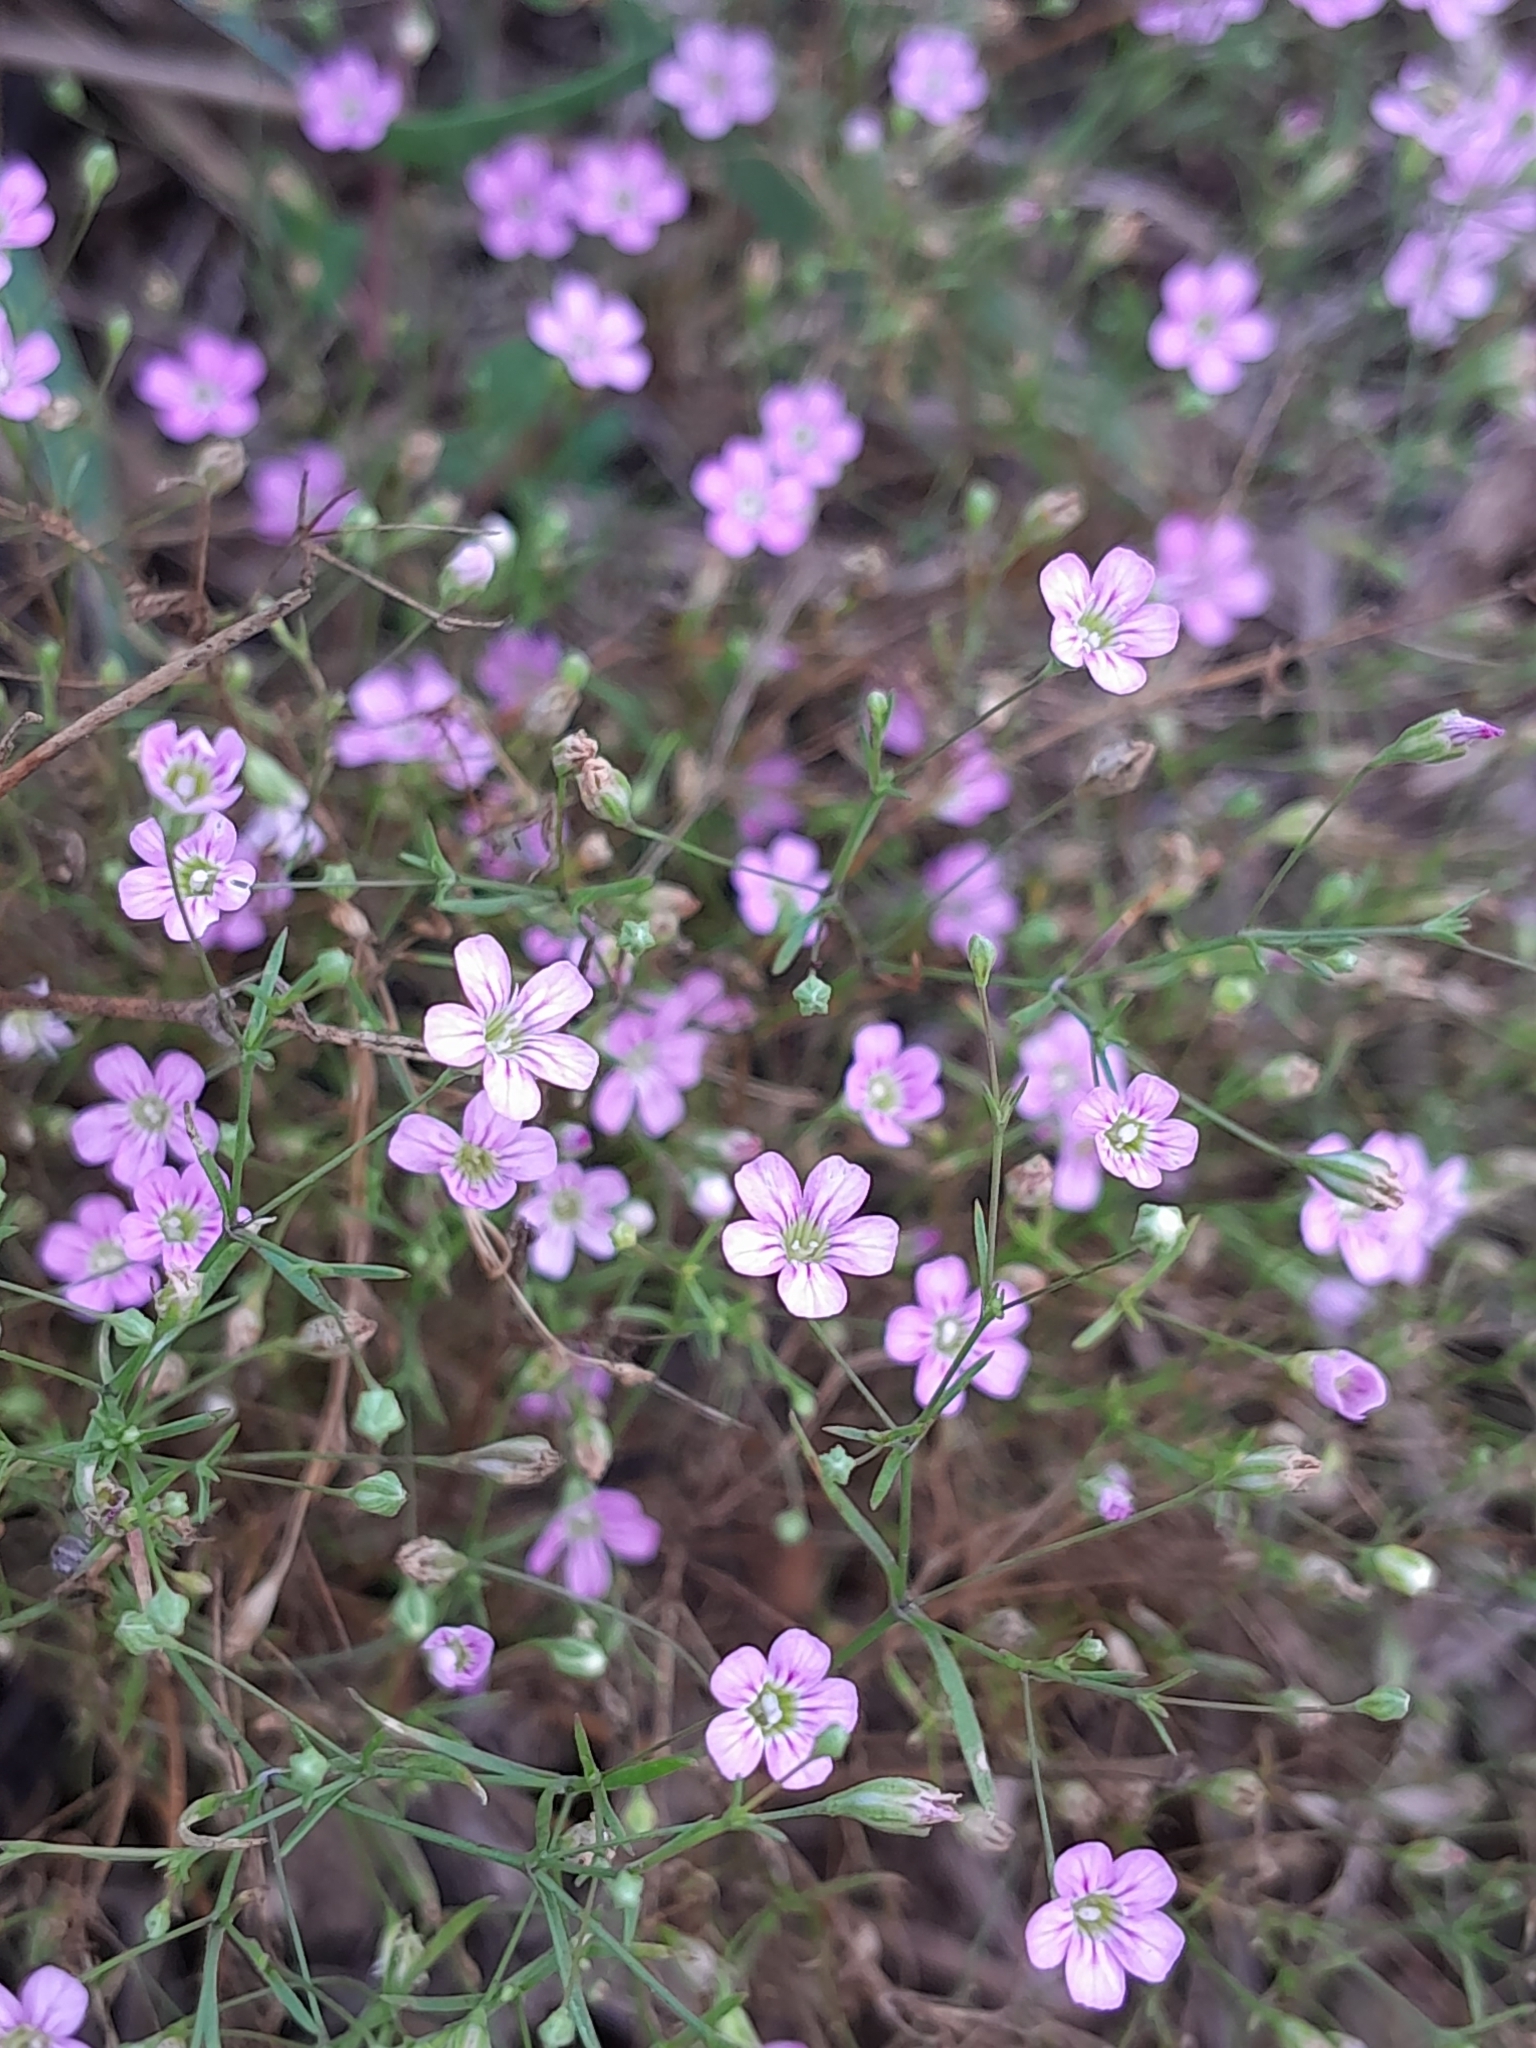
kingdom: Plantae
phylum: Tracheophyta
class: Magnoliopsida
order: Caryophyllales
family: Caryophyllaceae
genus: Psammophiliella
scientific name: Psammophiliella muralis
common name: Cushion baby's-breath
